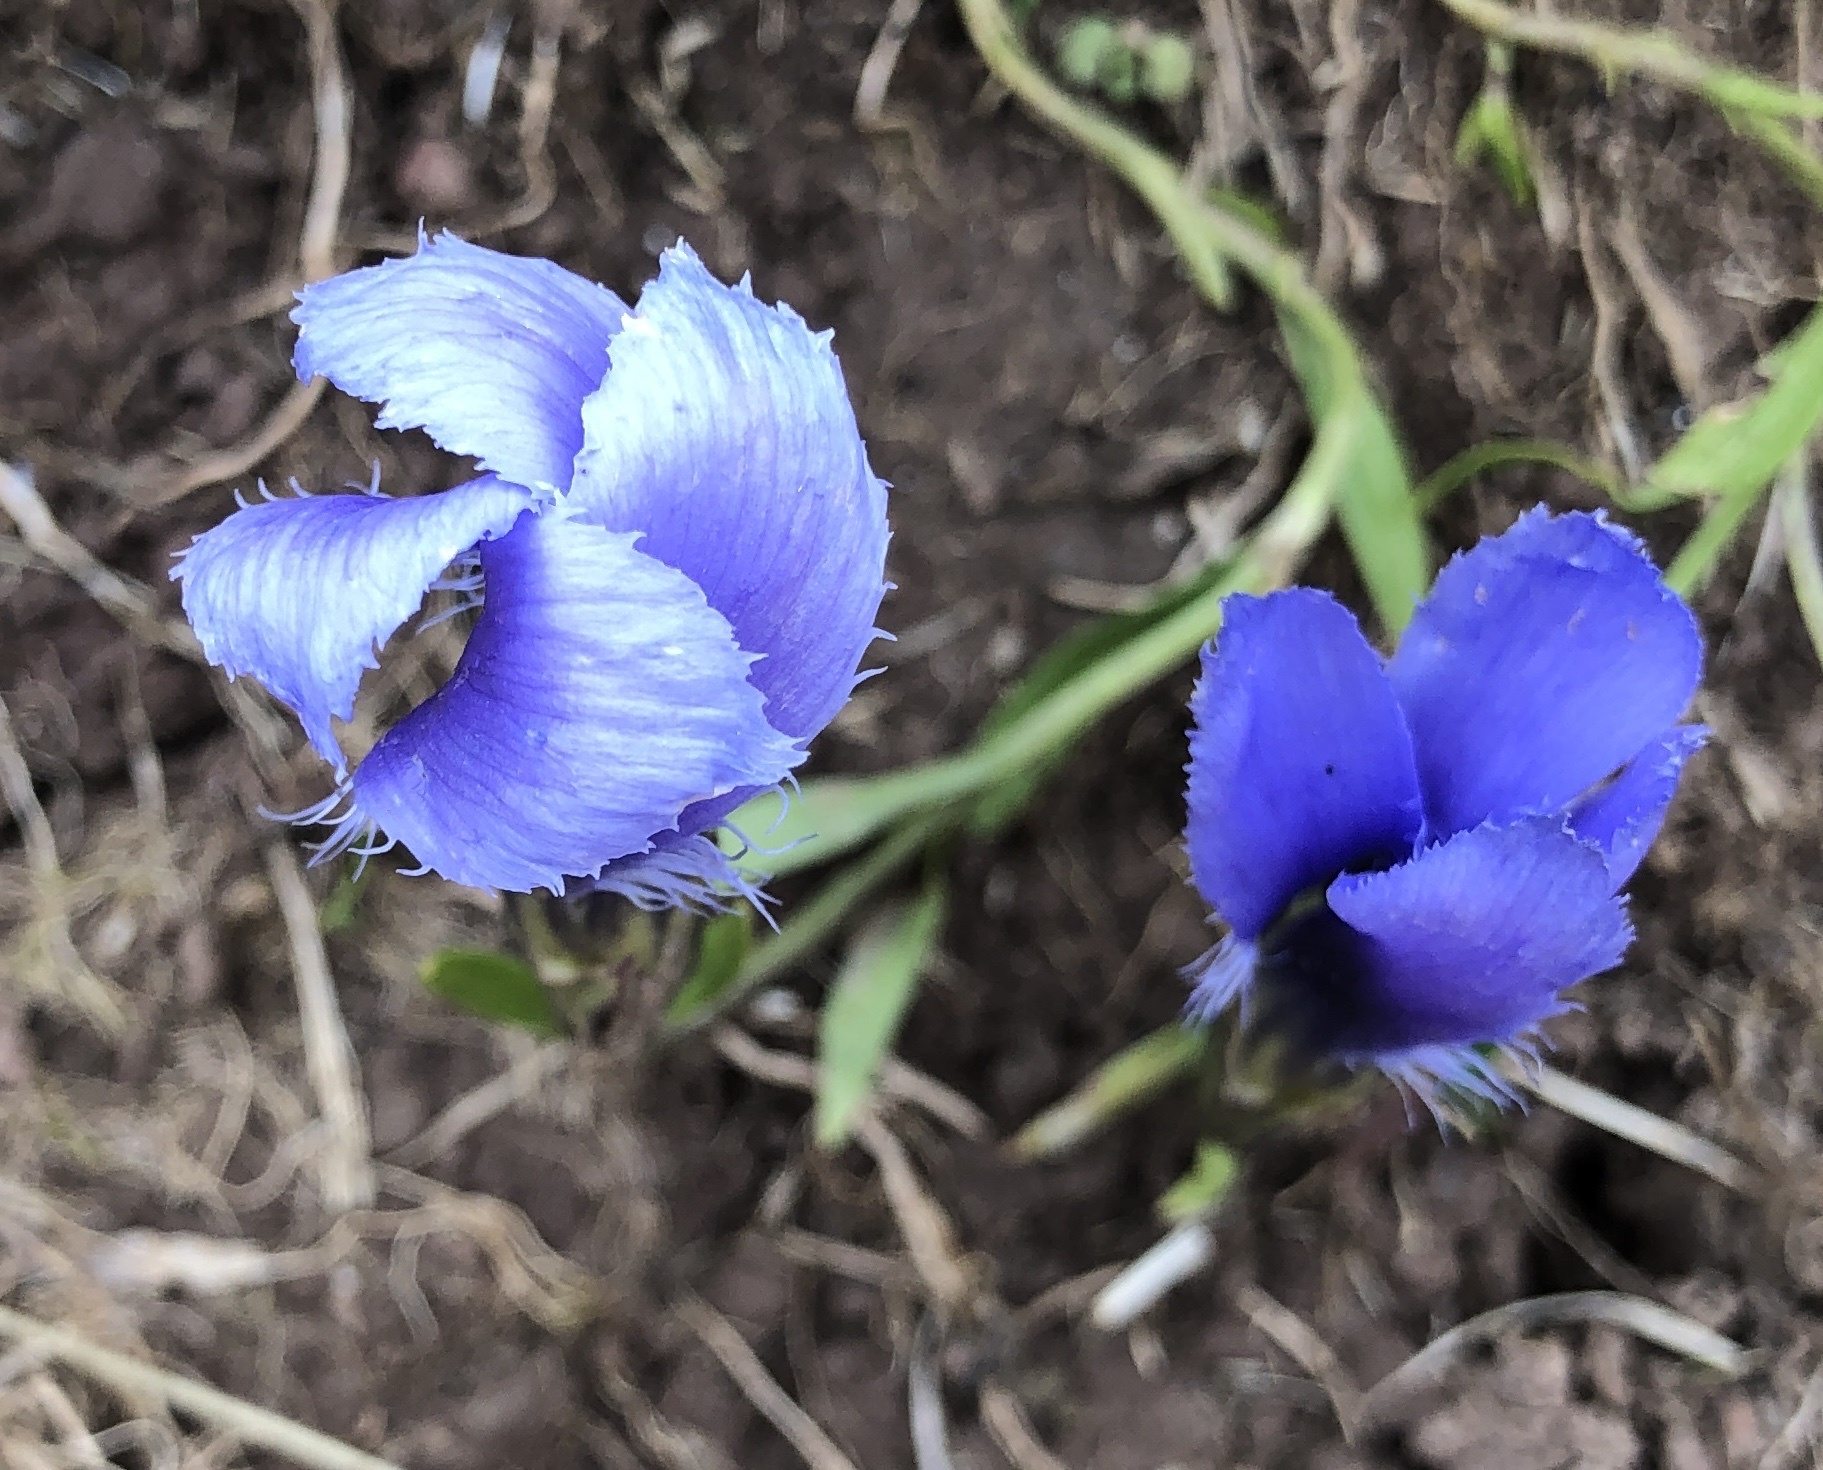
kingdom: Plantae
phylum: Tracheophyta
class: Magnoliopsida
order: Gentianales
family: Gentianaceae
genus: Gentianopsis
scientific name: Gentianopsis ciliata
